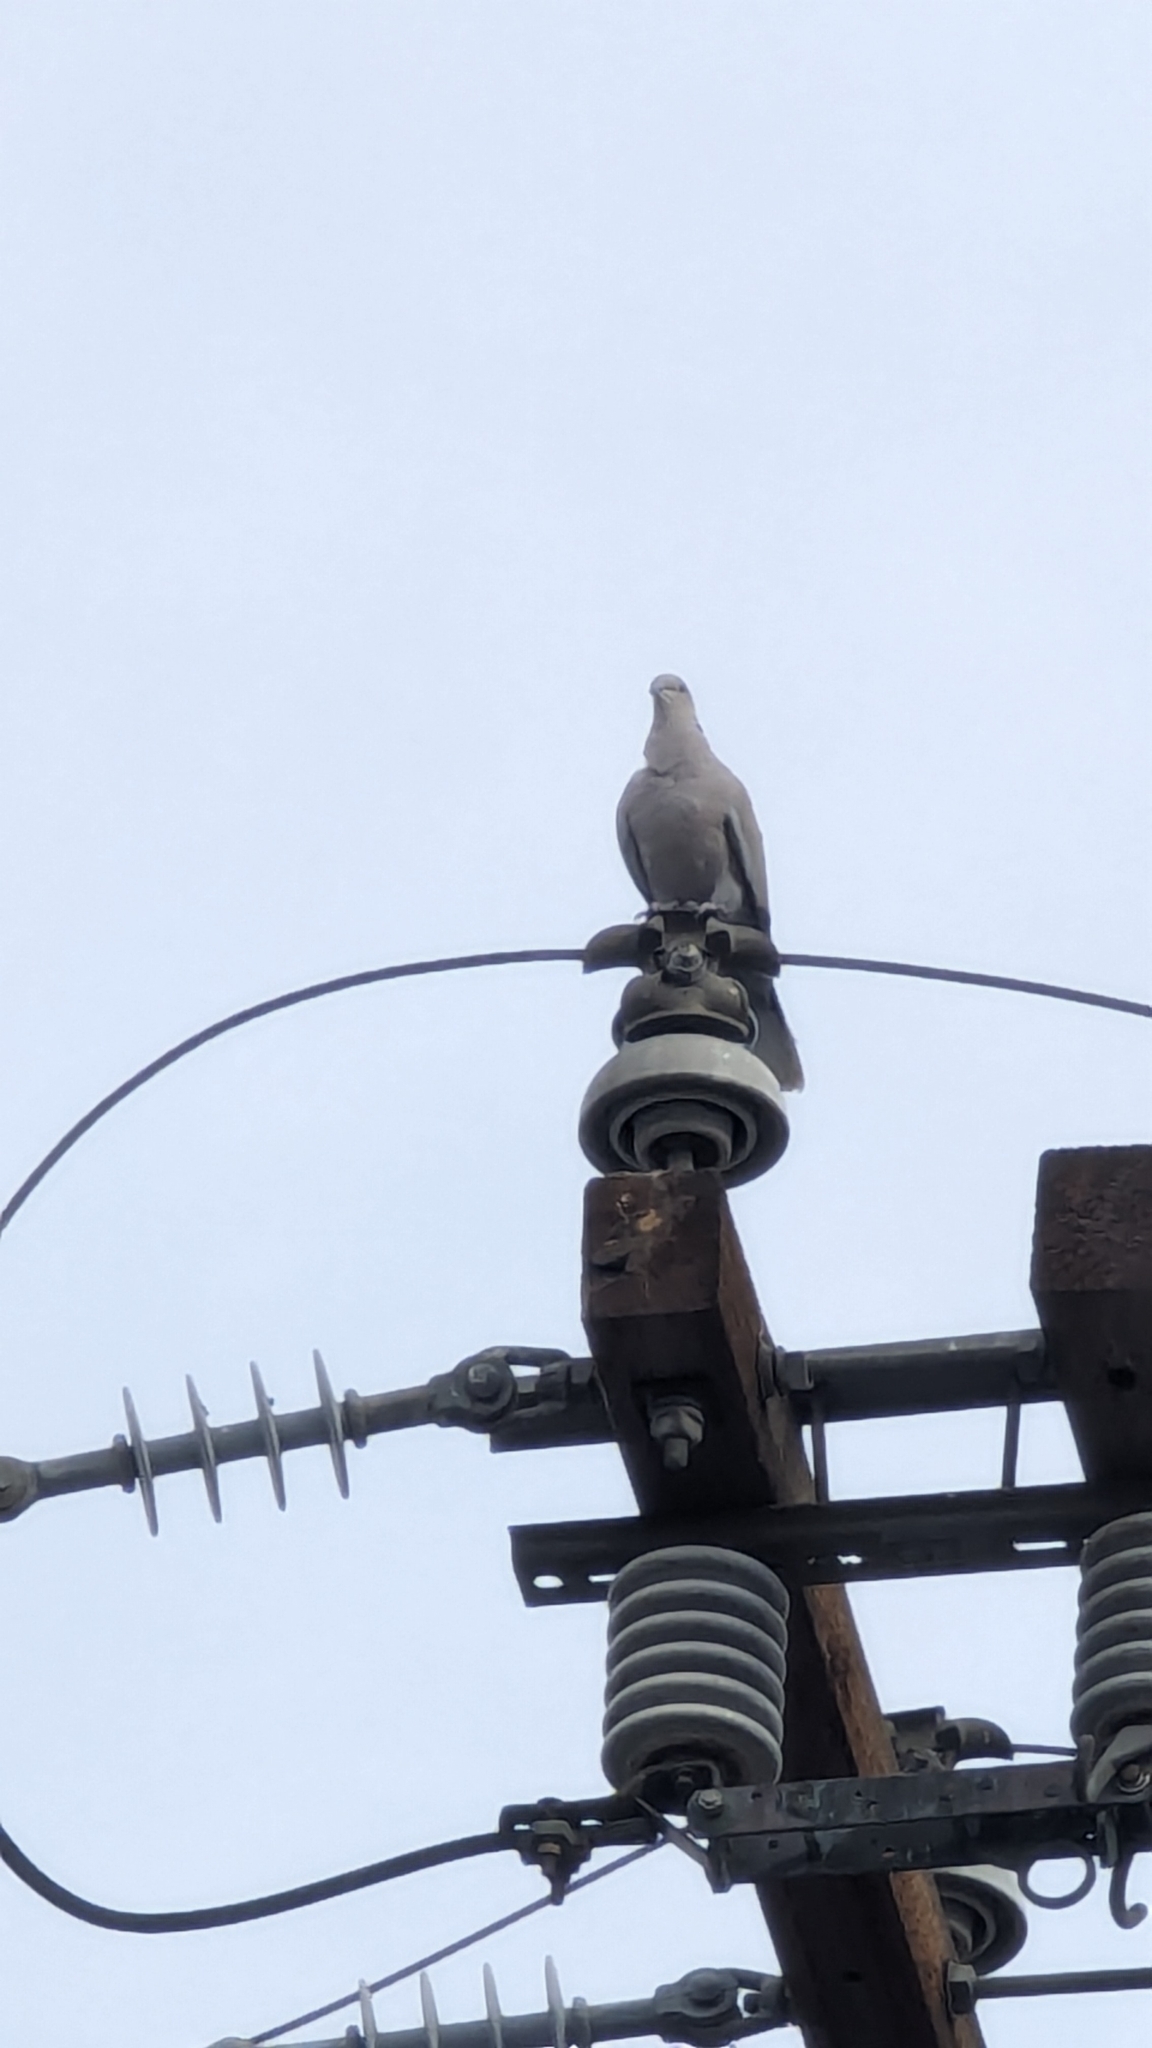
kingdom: Animalia
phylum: Chordata
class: Aves
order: Columbiformes
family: Columbidae
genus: Streptopelia
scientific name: Streptopelia decaocto
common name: Eurasian collared dove
